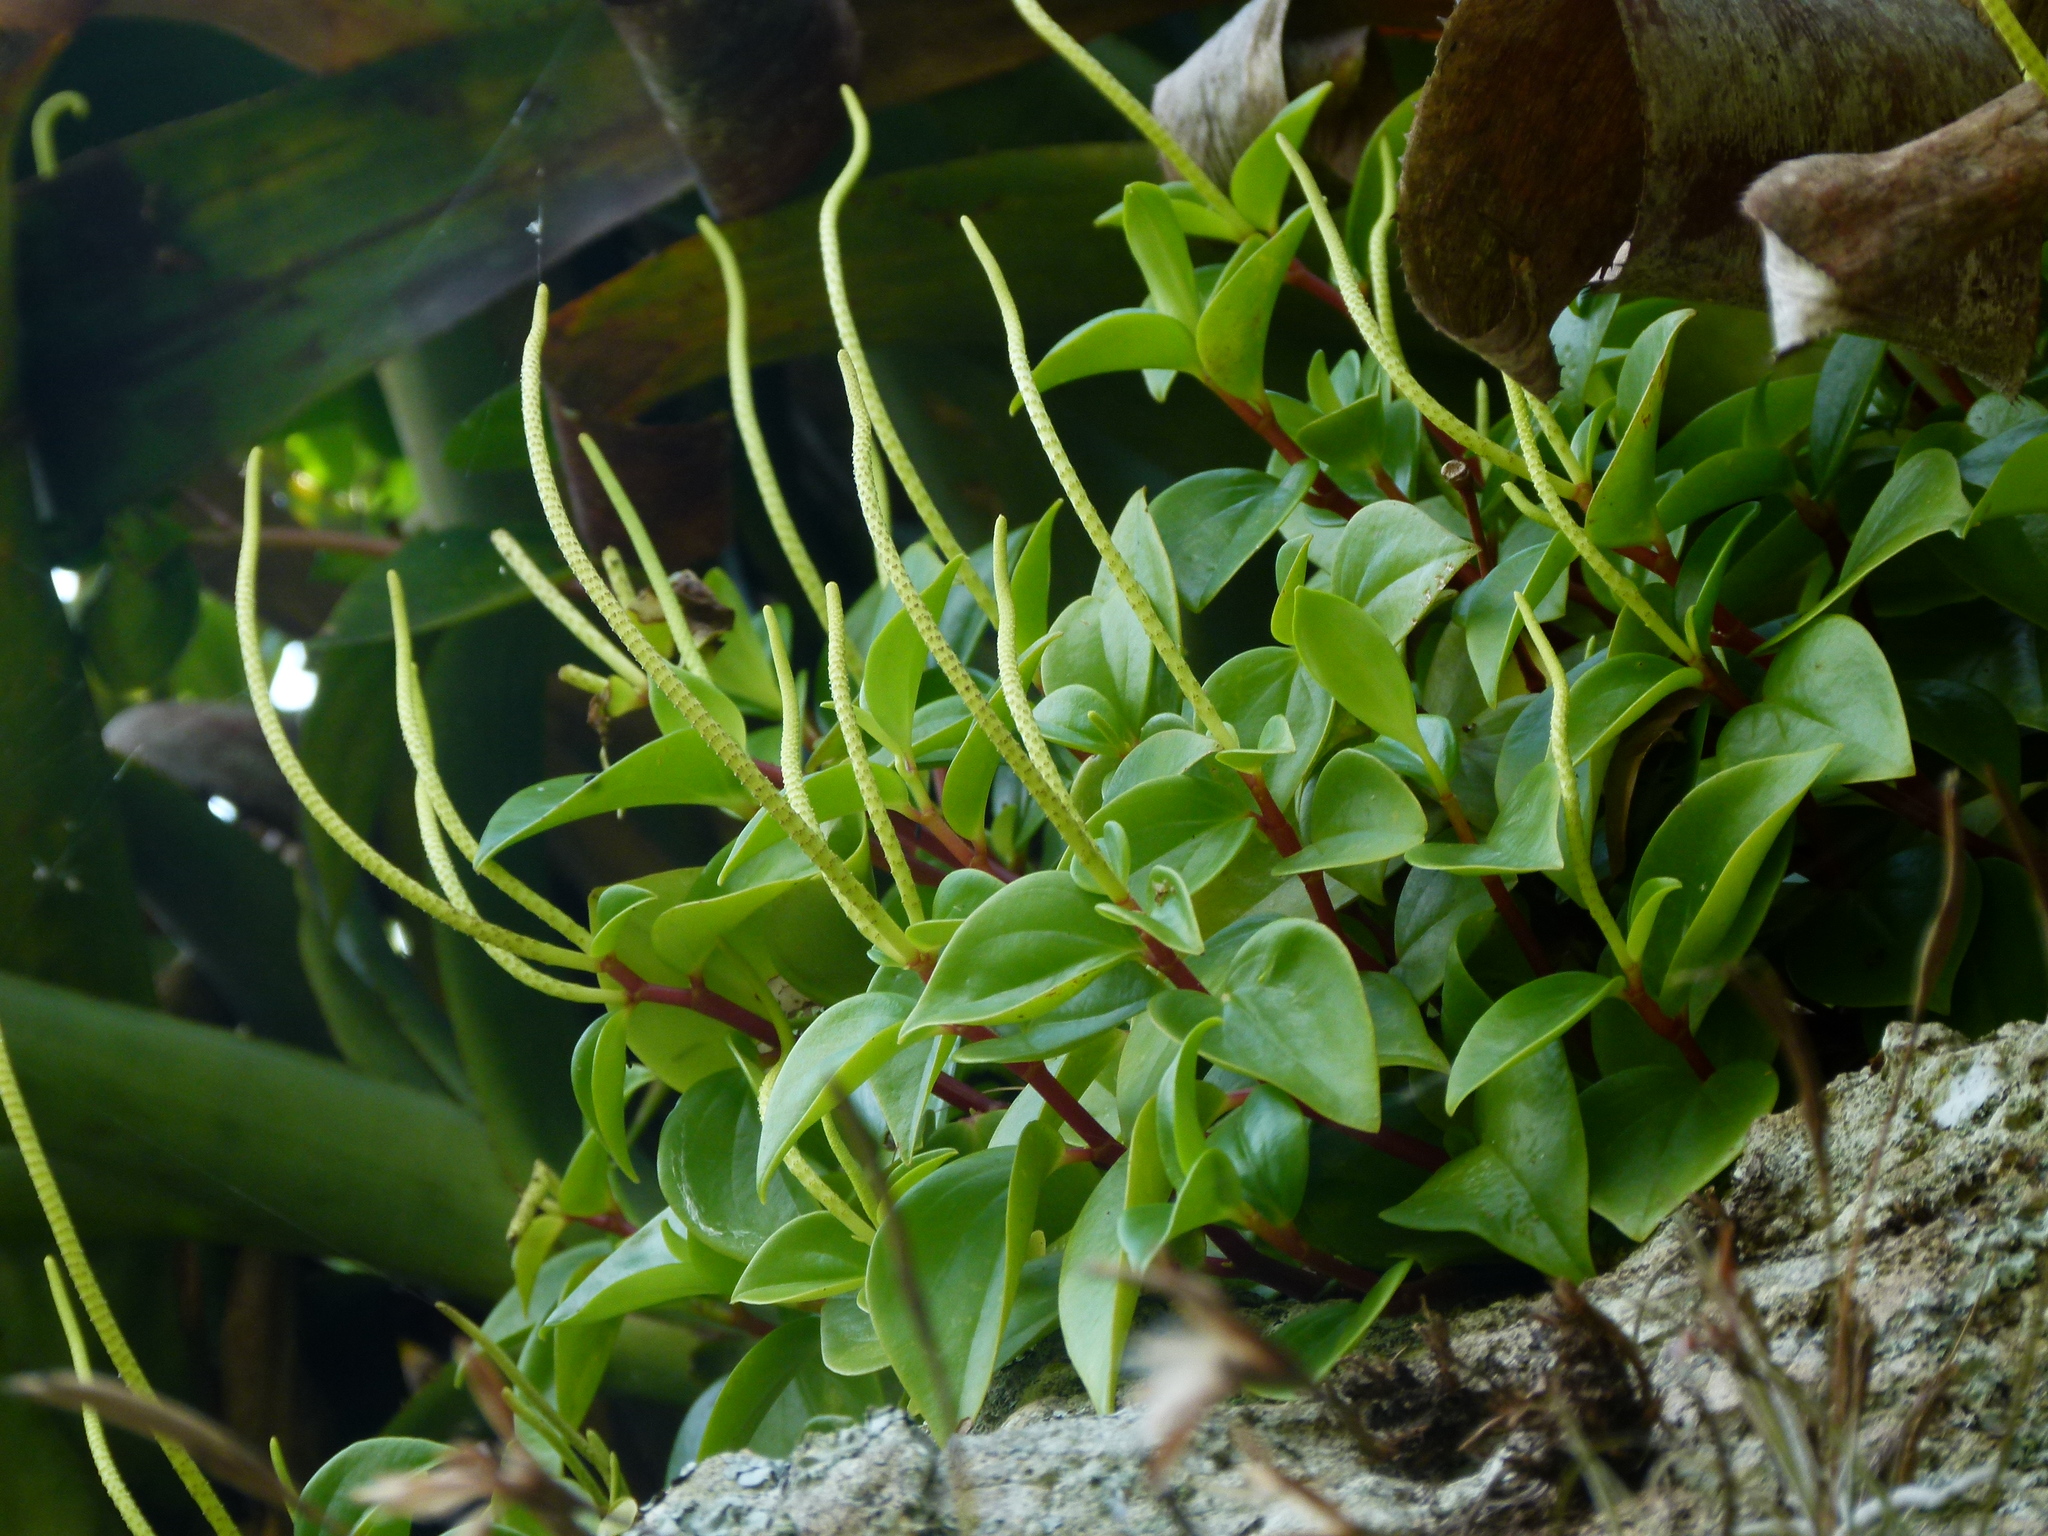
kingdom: Plantae
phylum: Tracheophyta
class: Magnoliopsida
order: Piperales
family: Piperaceae
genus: Peperomia
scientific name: Peperomia glabella
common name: Cypress peperomia
